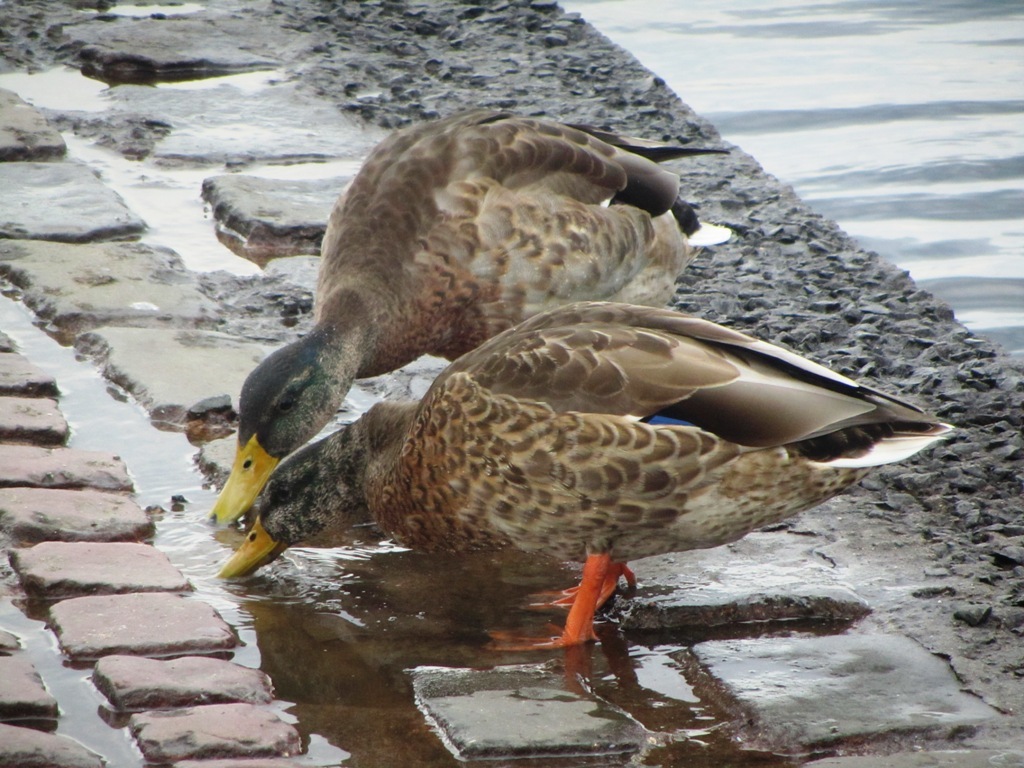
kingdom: Animalia
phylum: Chordata
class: Aves
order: Anseriformes
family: Anatidae
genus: Anas
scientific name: Anas platyrhynchos
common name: Mallard
